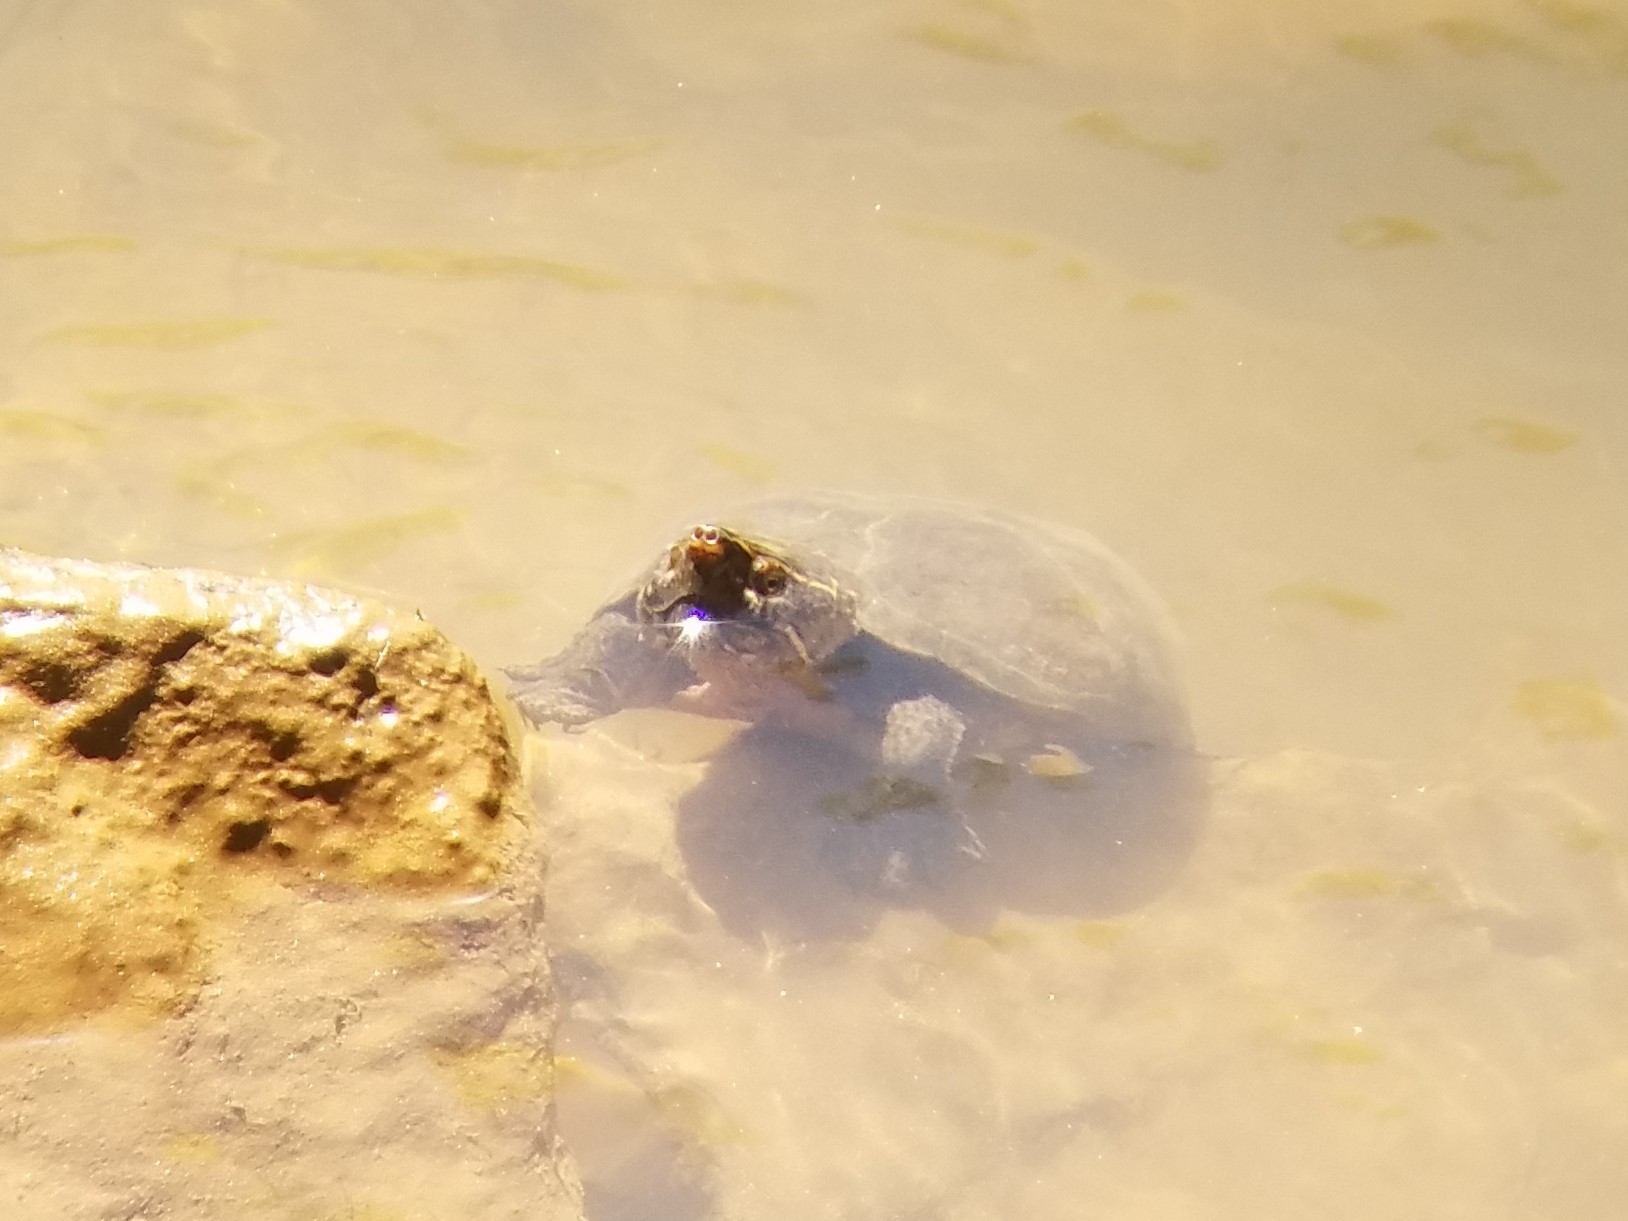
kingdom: Animalia
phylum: Chordata
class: Testudines
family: Kinosternidae
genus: Sternotherus
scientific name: Sternotherus odoratus
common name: Common musk turtle
